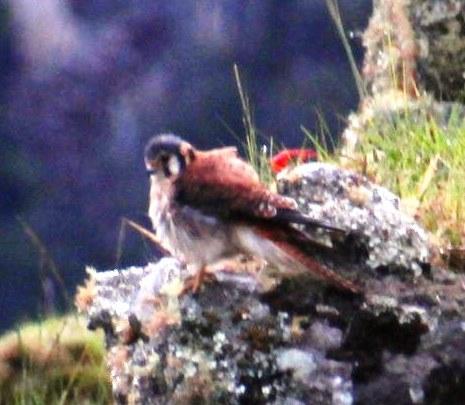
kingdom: Animalia
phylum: Chordata
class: Aves
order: Falconiformes
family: Falconidae
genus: Falco
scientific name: Falco sparverius
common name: American kestrel
